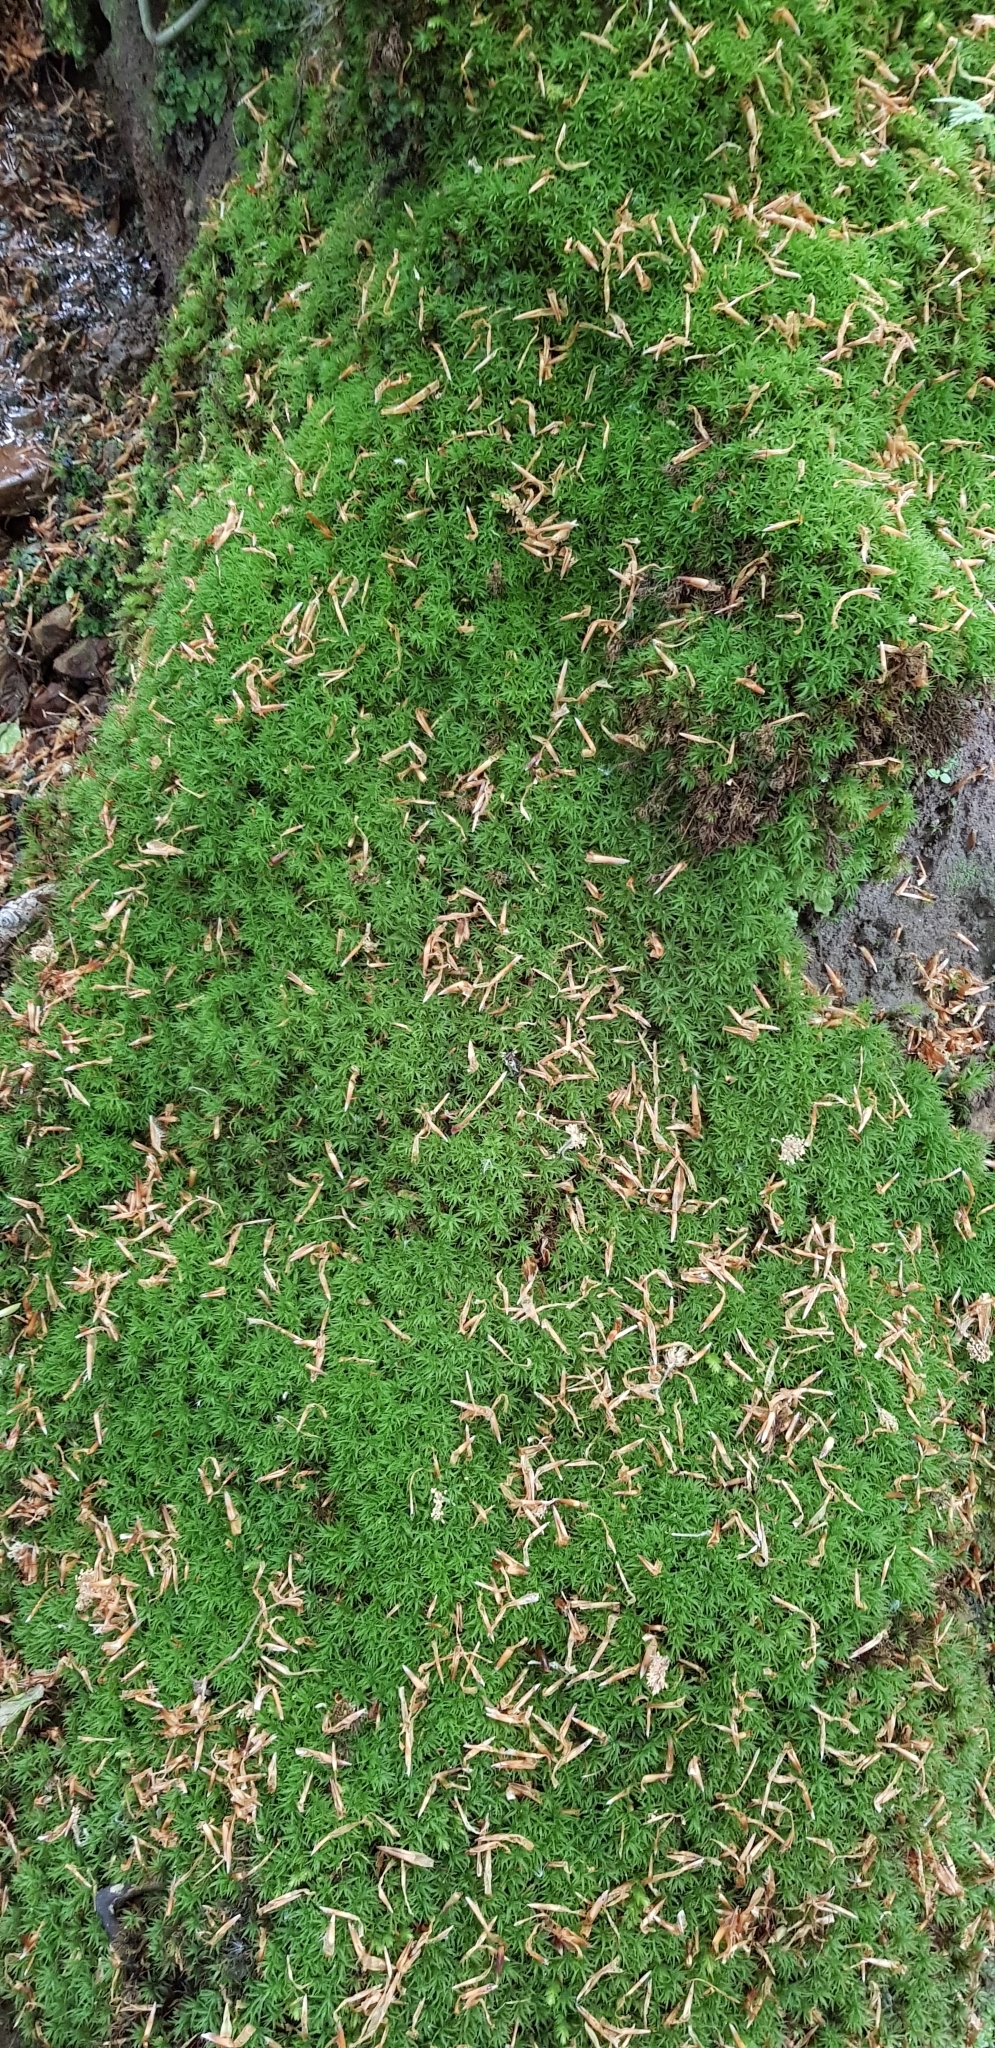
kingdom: Plantae
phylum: Bryophyta
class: Polytrichopsida
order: Polytrichales
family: Polytrichaceae
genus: Atrichum
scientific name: Atrichum undulatum
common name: Common smoothcap
